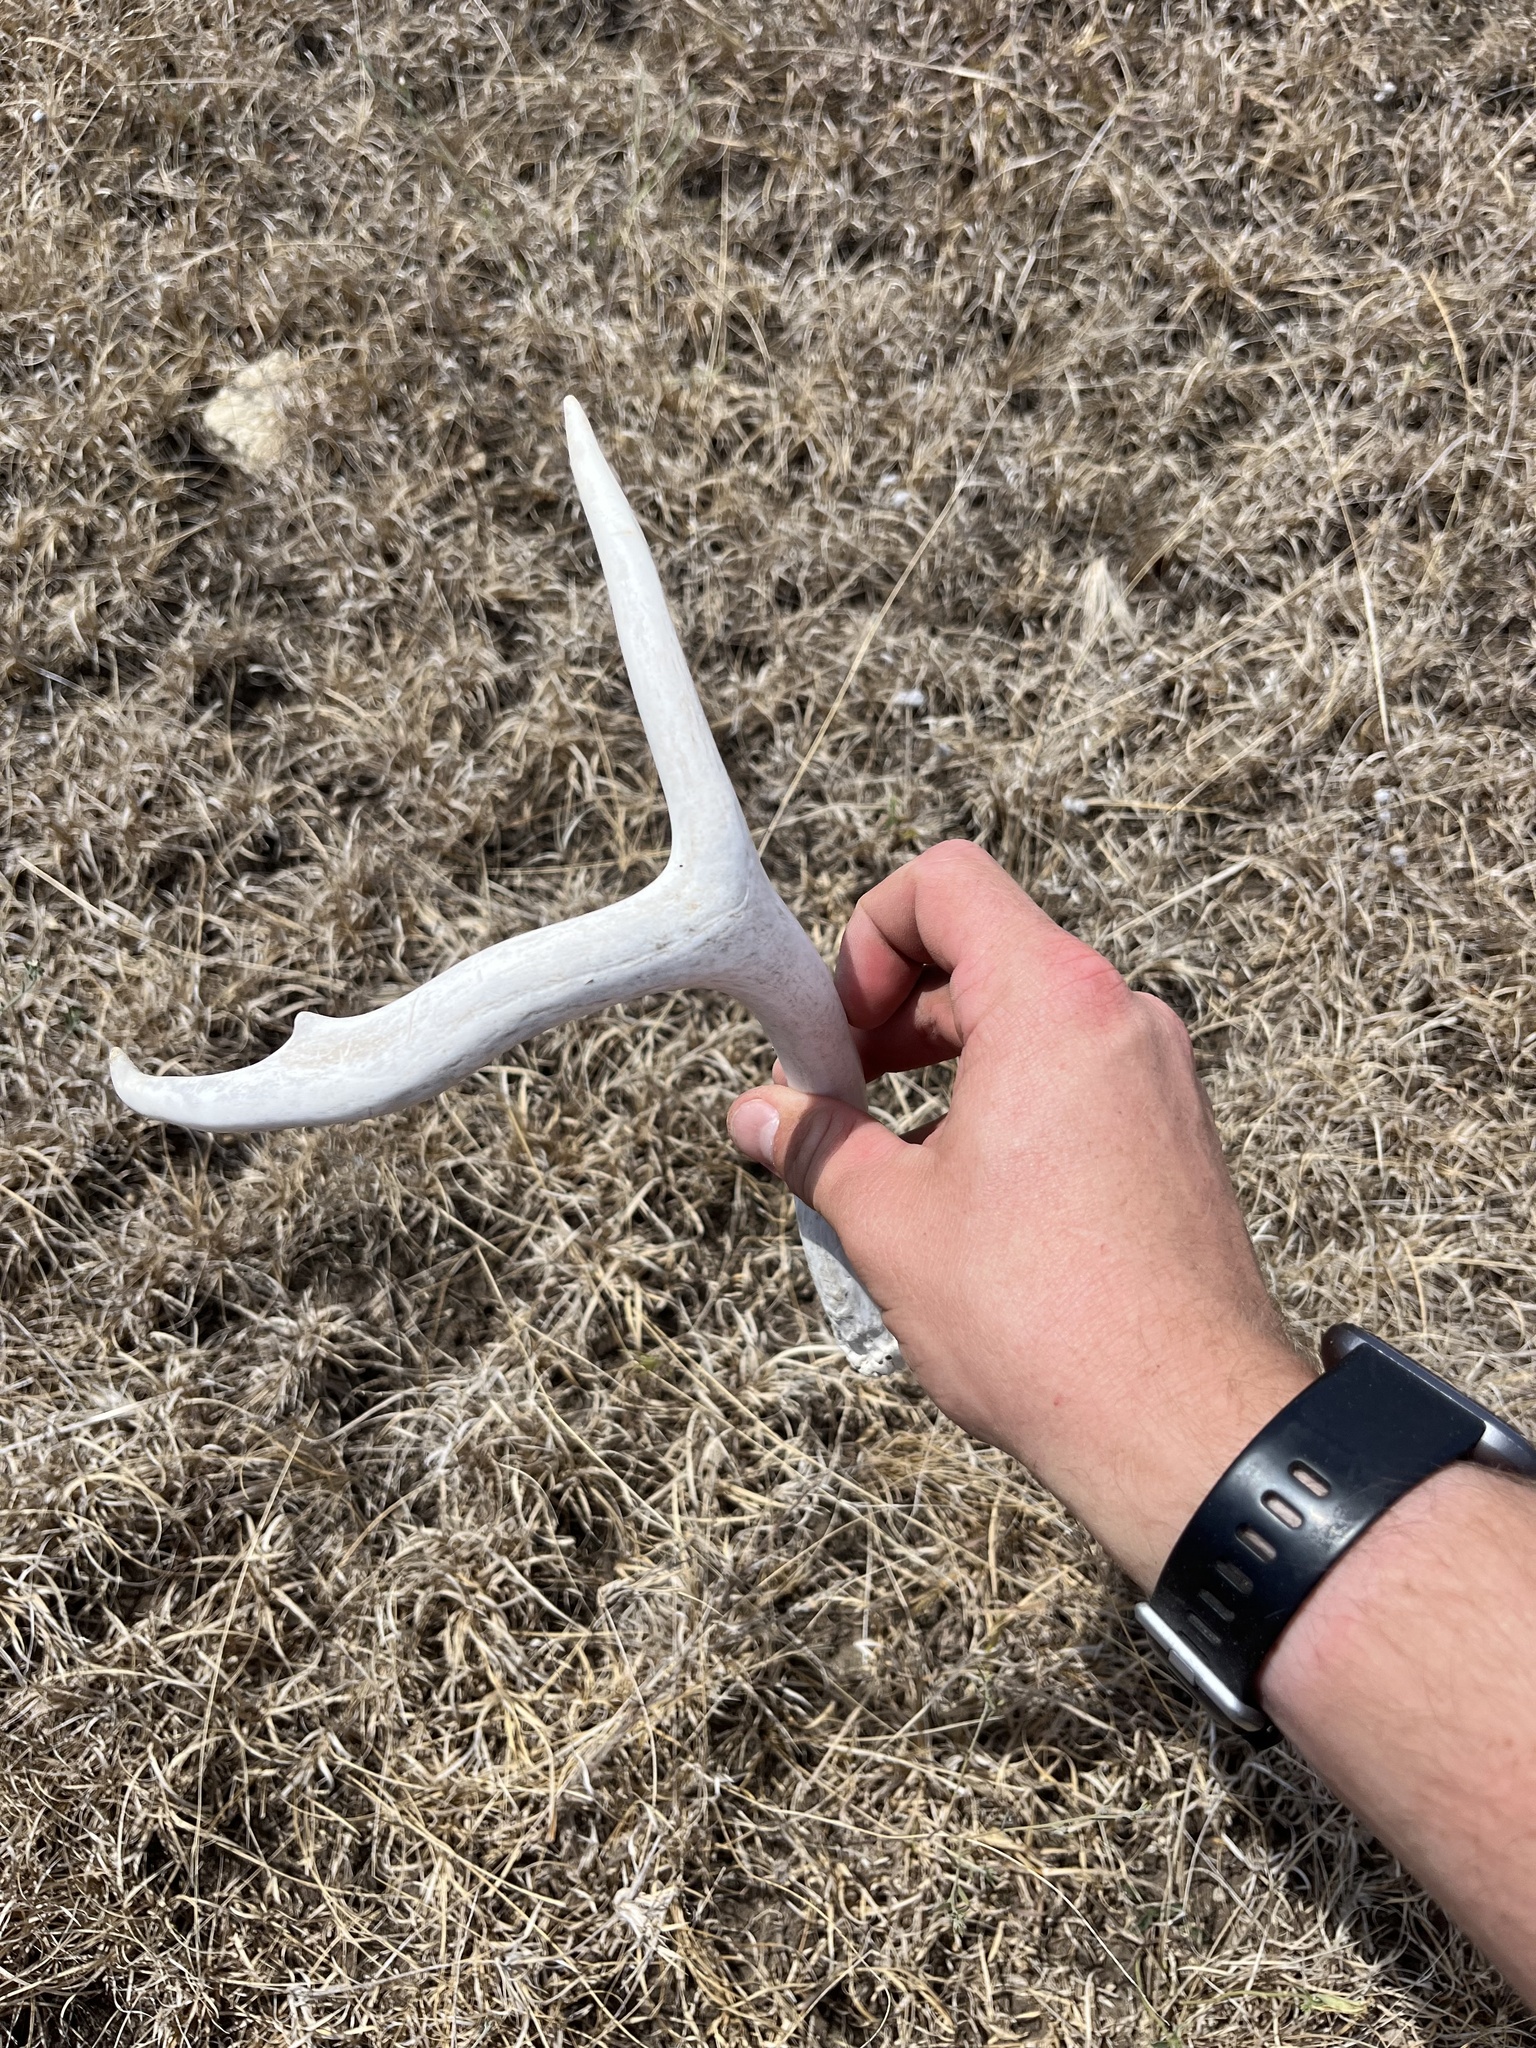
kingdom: Animalia
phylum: Chordata
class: Mammalia
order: Artiodactyla
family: Cervidae
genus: Odocoileus
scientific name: Odocoileus virginianus
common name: White-tailed deer
